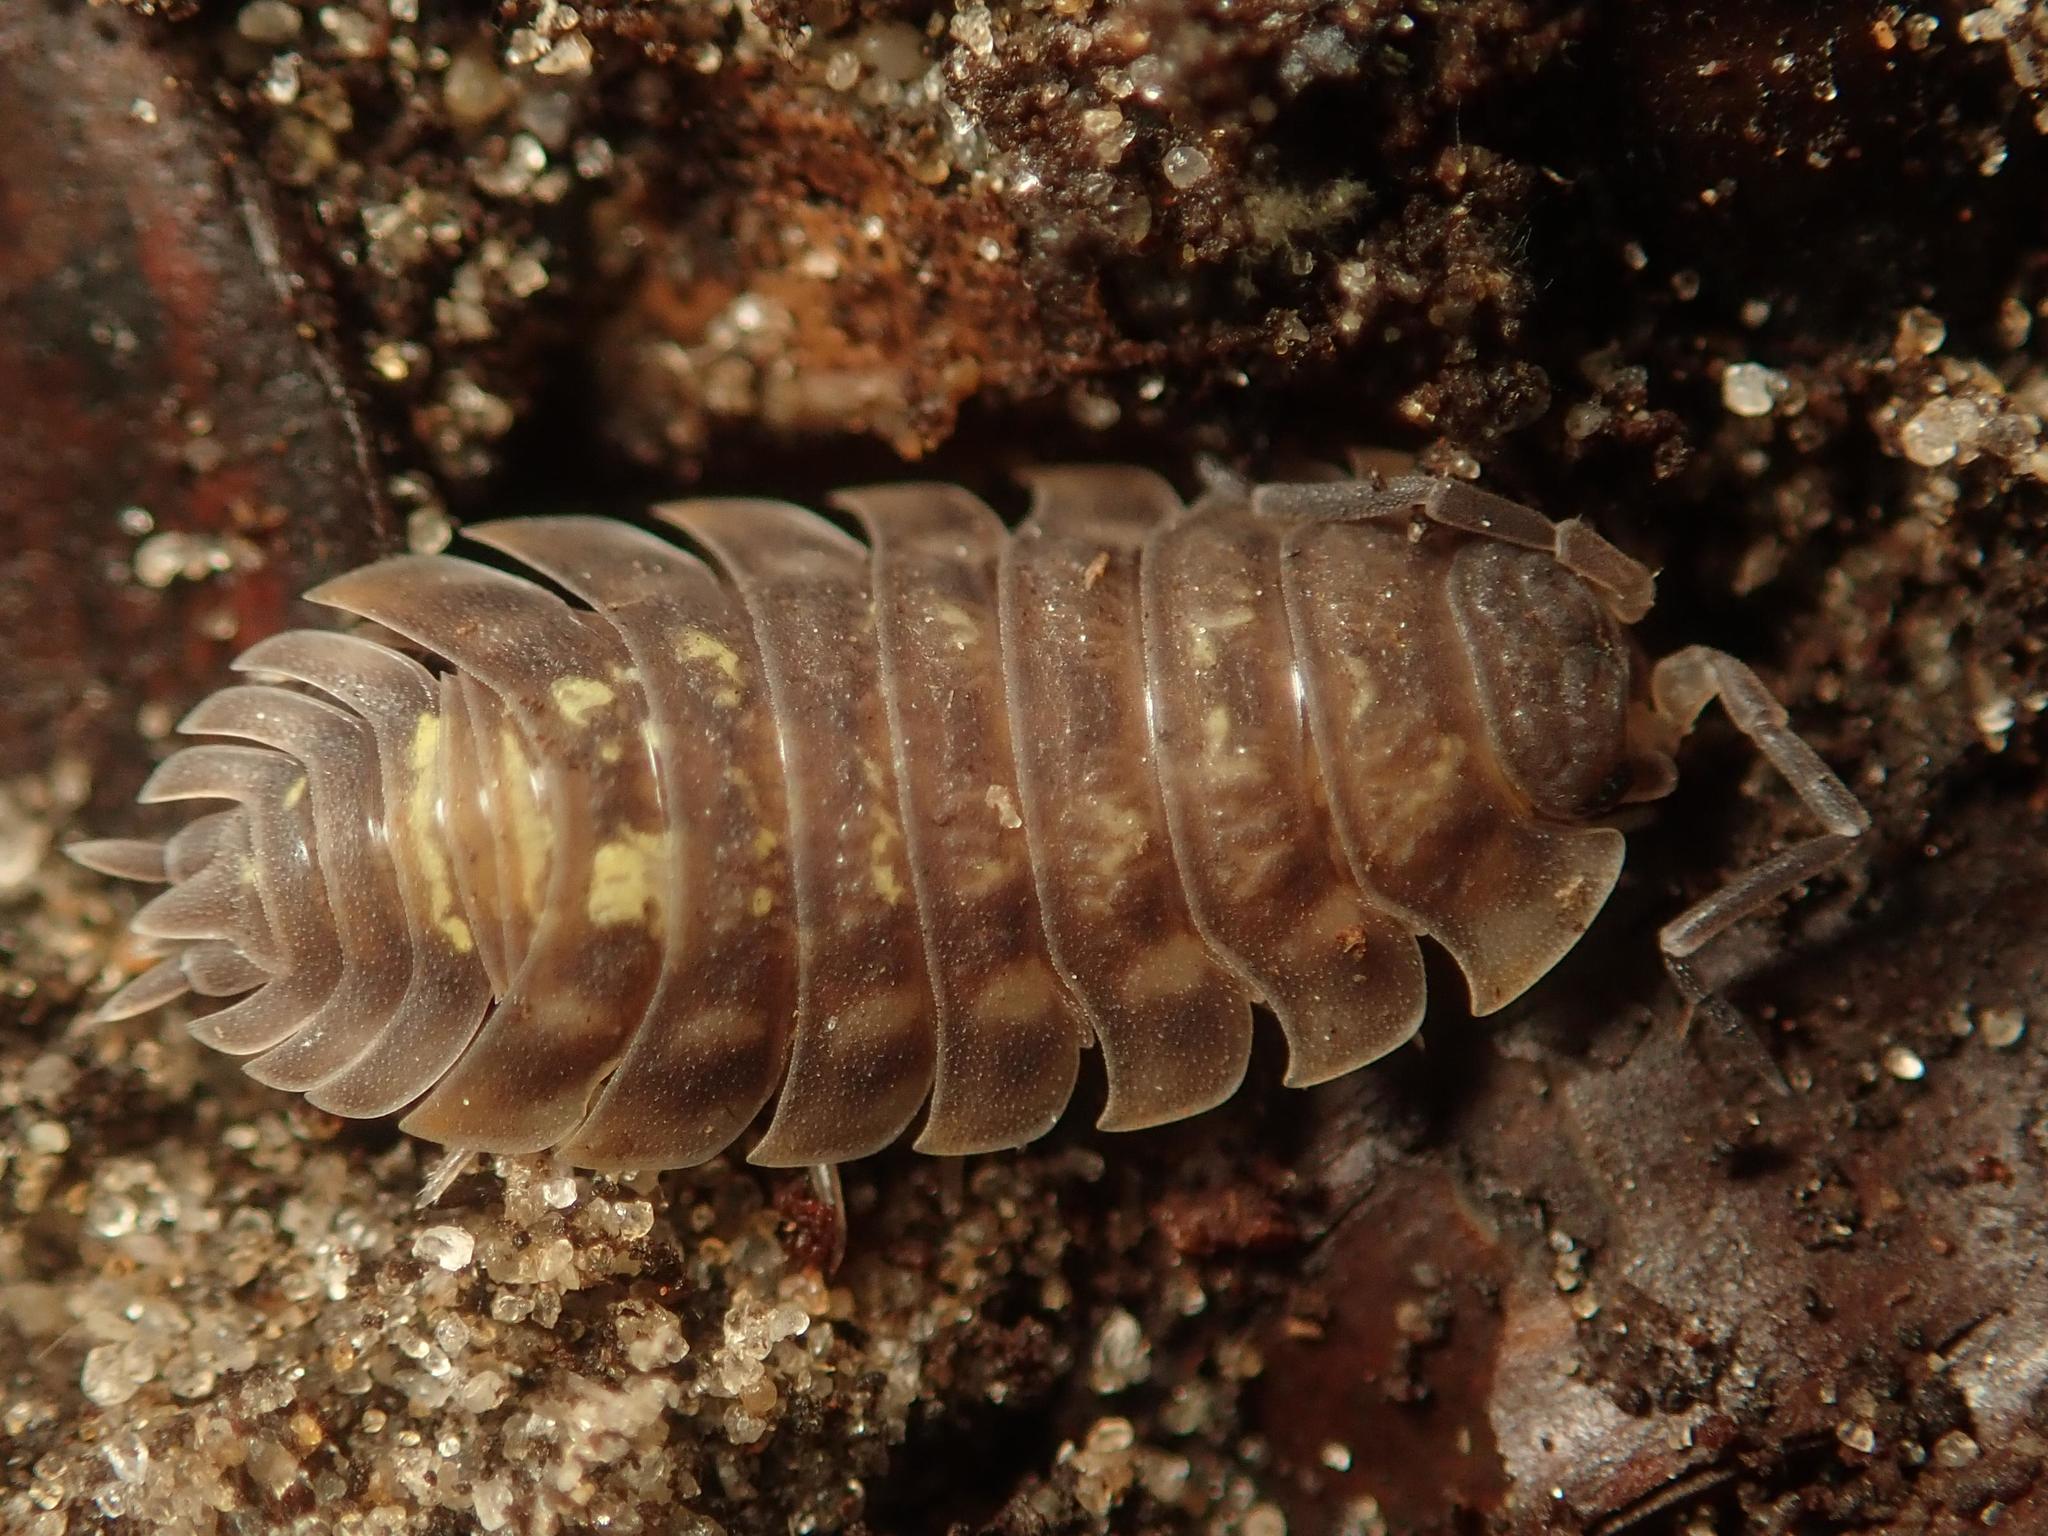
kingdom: Animalia
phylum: Arthropoda
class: Malacostraca
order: Isopoda
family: Oniscidae
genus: Oniscus
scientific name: Oniscus asellus
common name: Common shiny woodlouse
